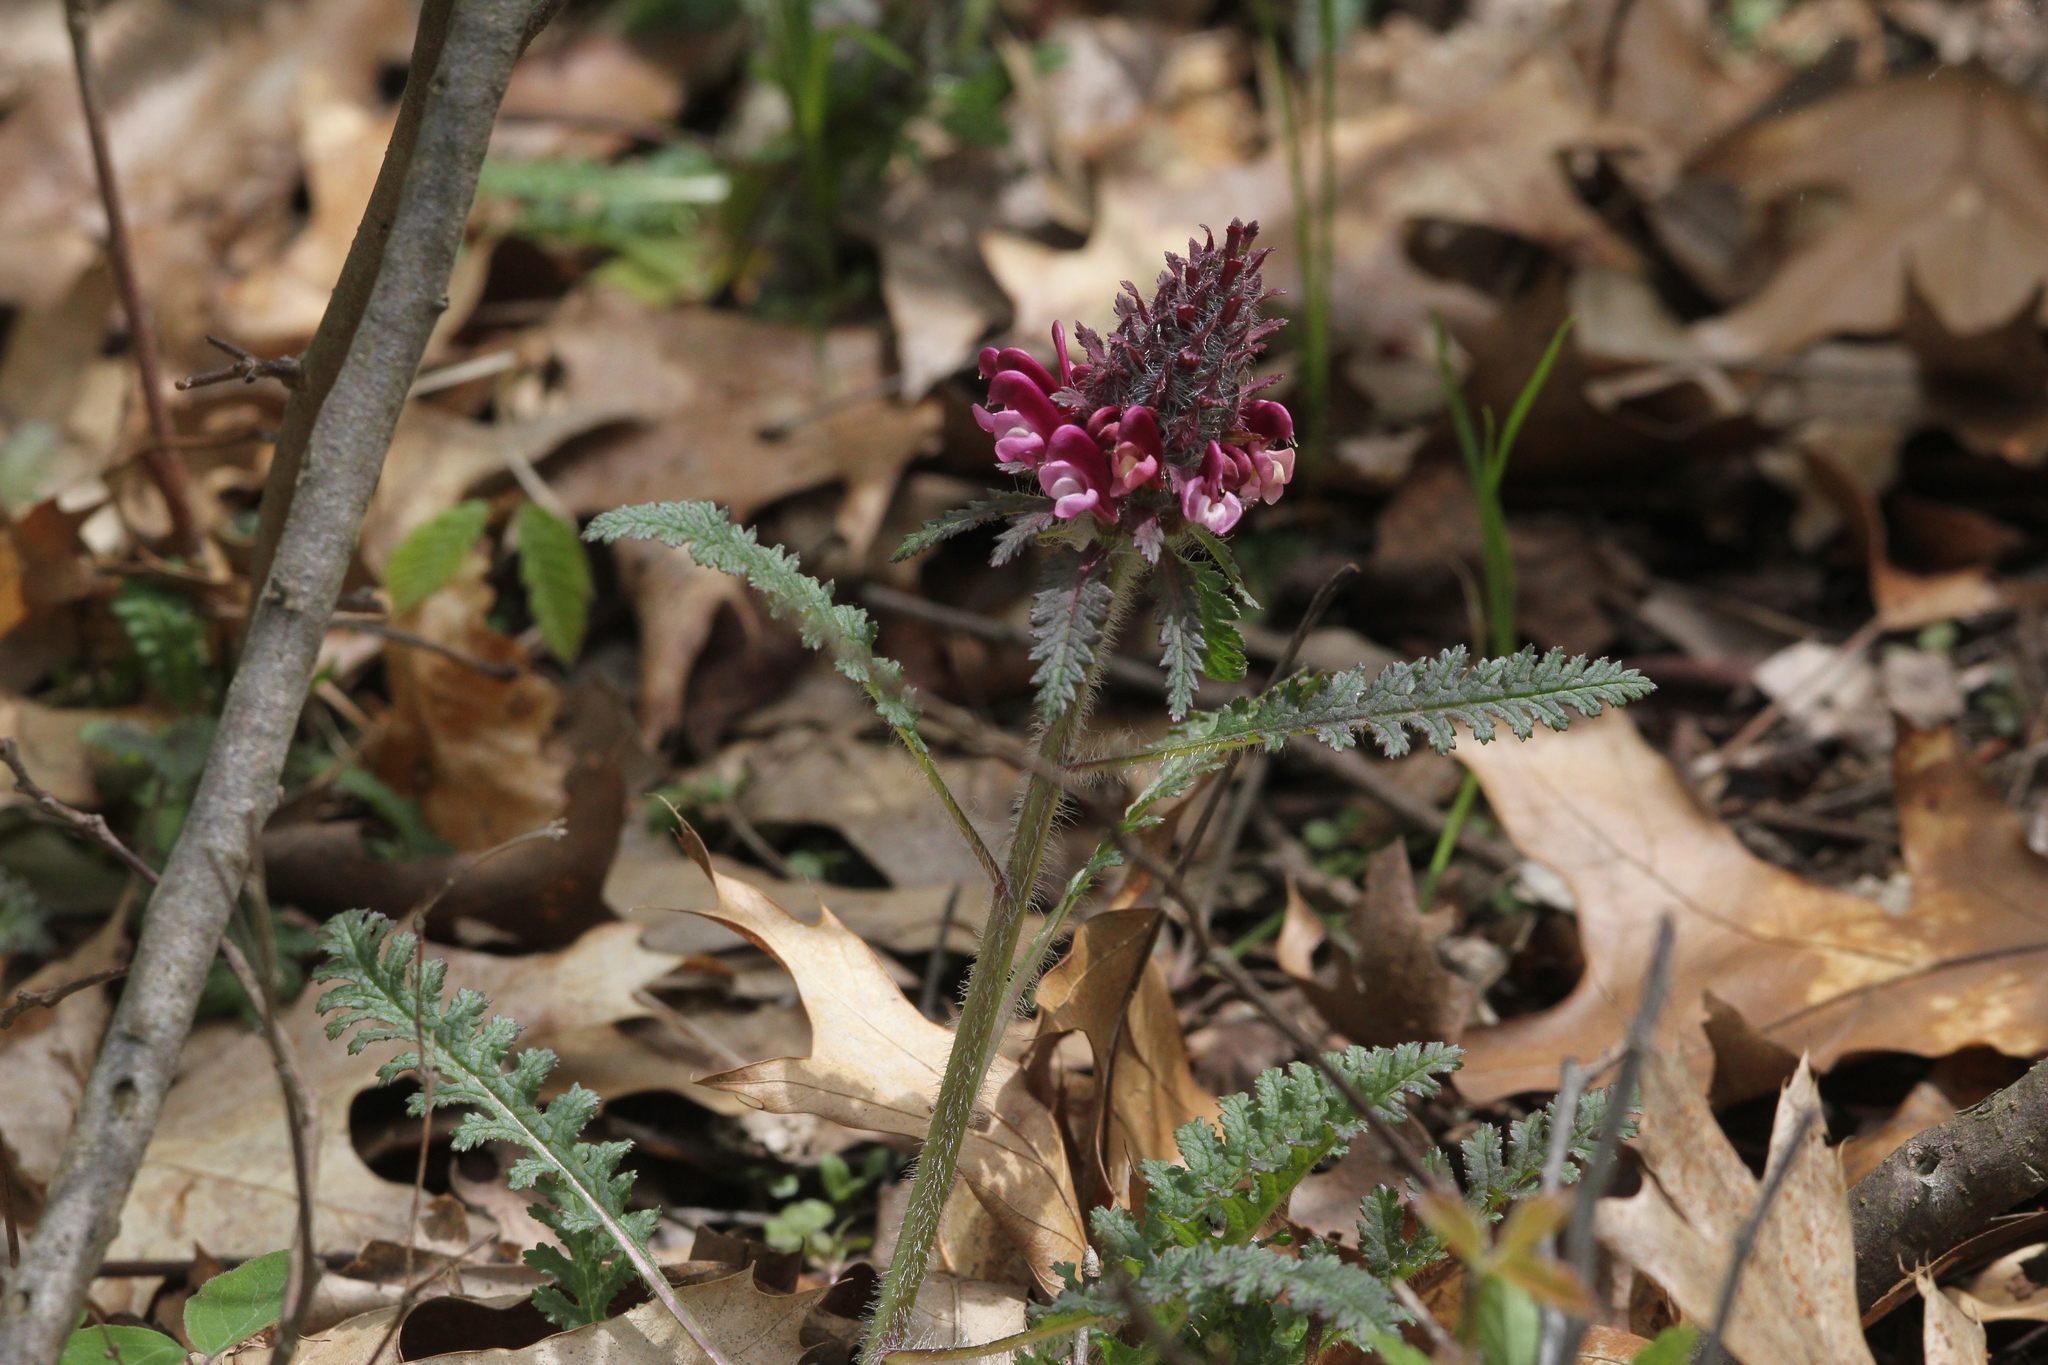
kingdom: Plantae
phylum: Tracheophyta
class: Magnoliopsida
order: Lamiales
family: Orobanchaceae
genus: Pedicularis
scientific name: Pedicularis canadensis
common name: Early lousewort
